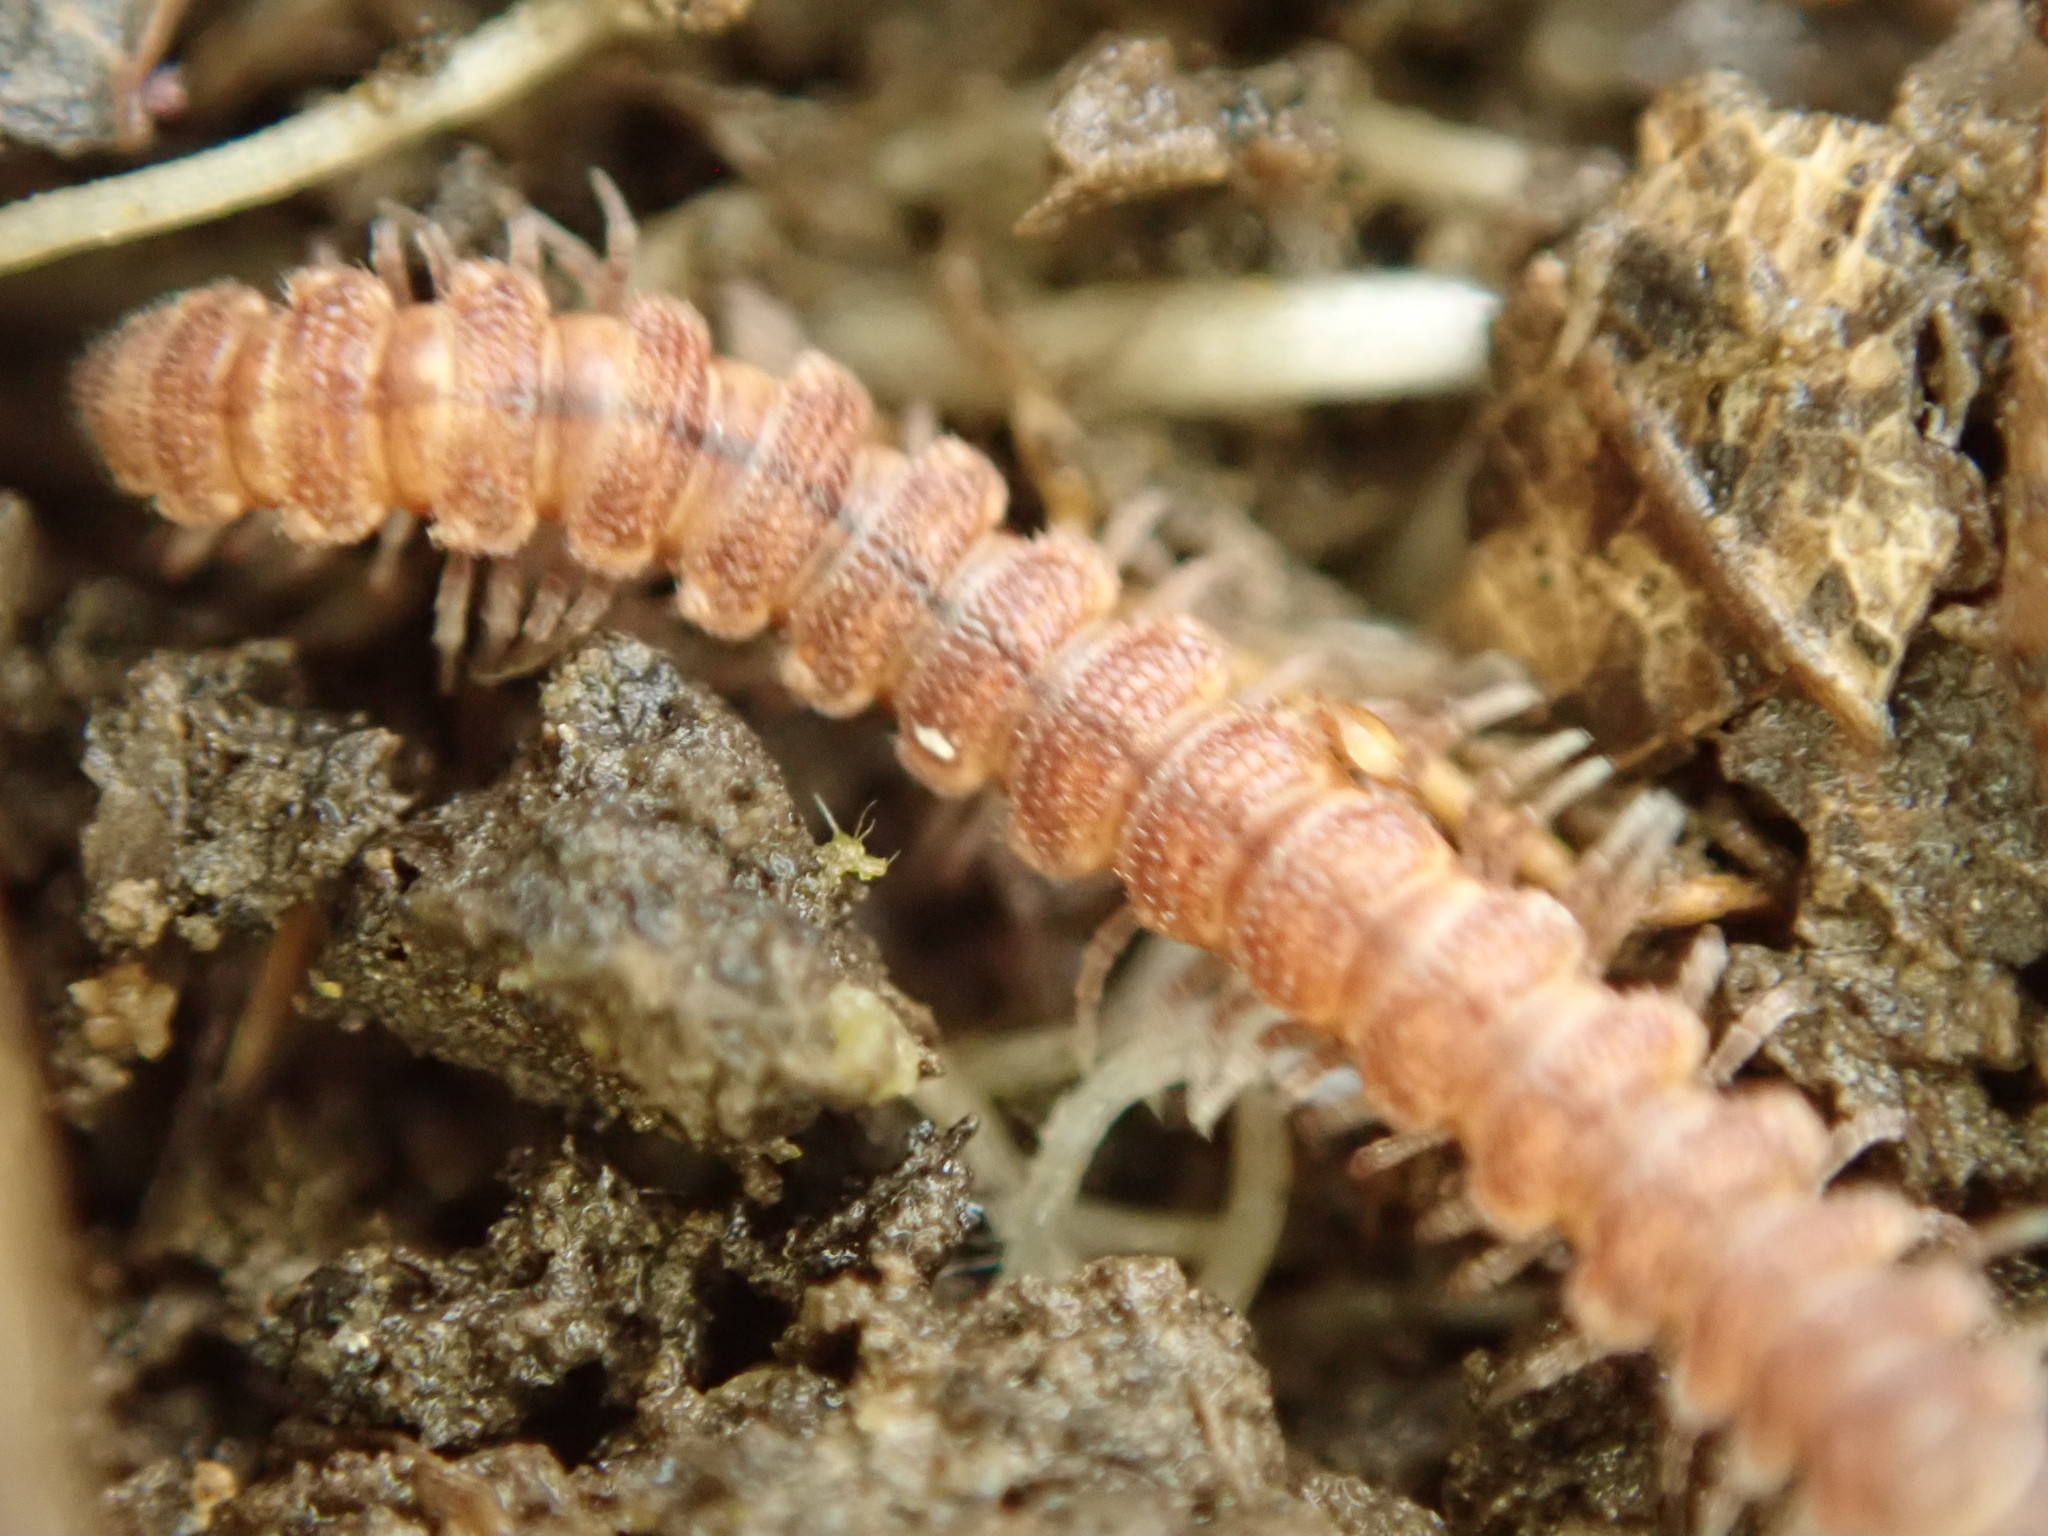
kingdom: Animalia
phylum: Arthropoda
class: Diplopoda
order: Polydesmida
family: Polydesmidae
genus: Scytonotus
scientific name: Scytonotus granulatus
